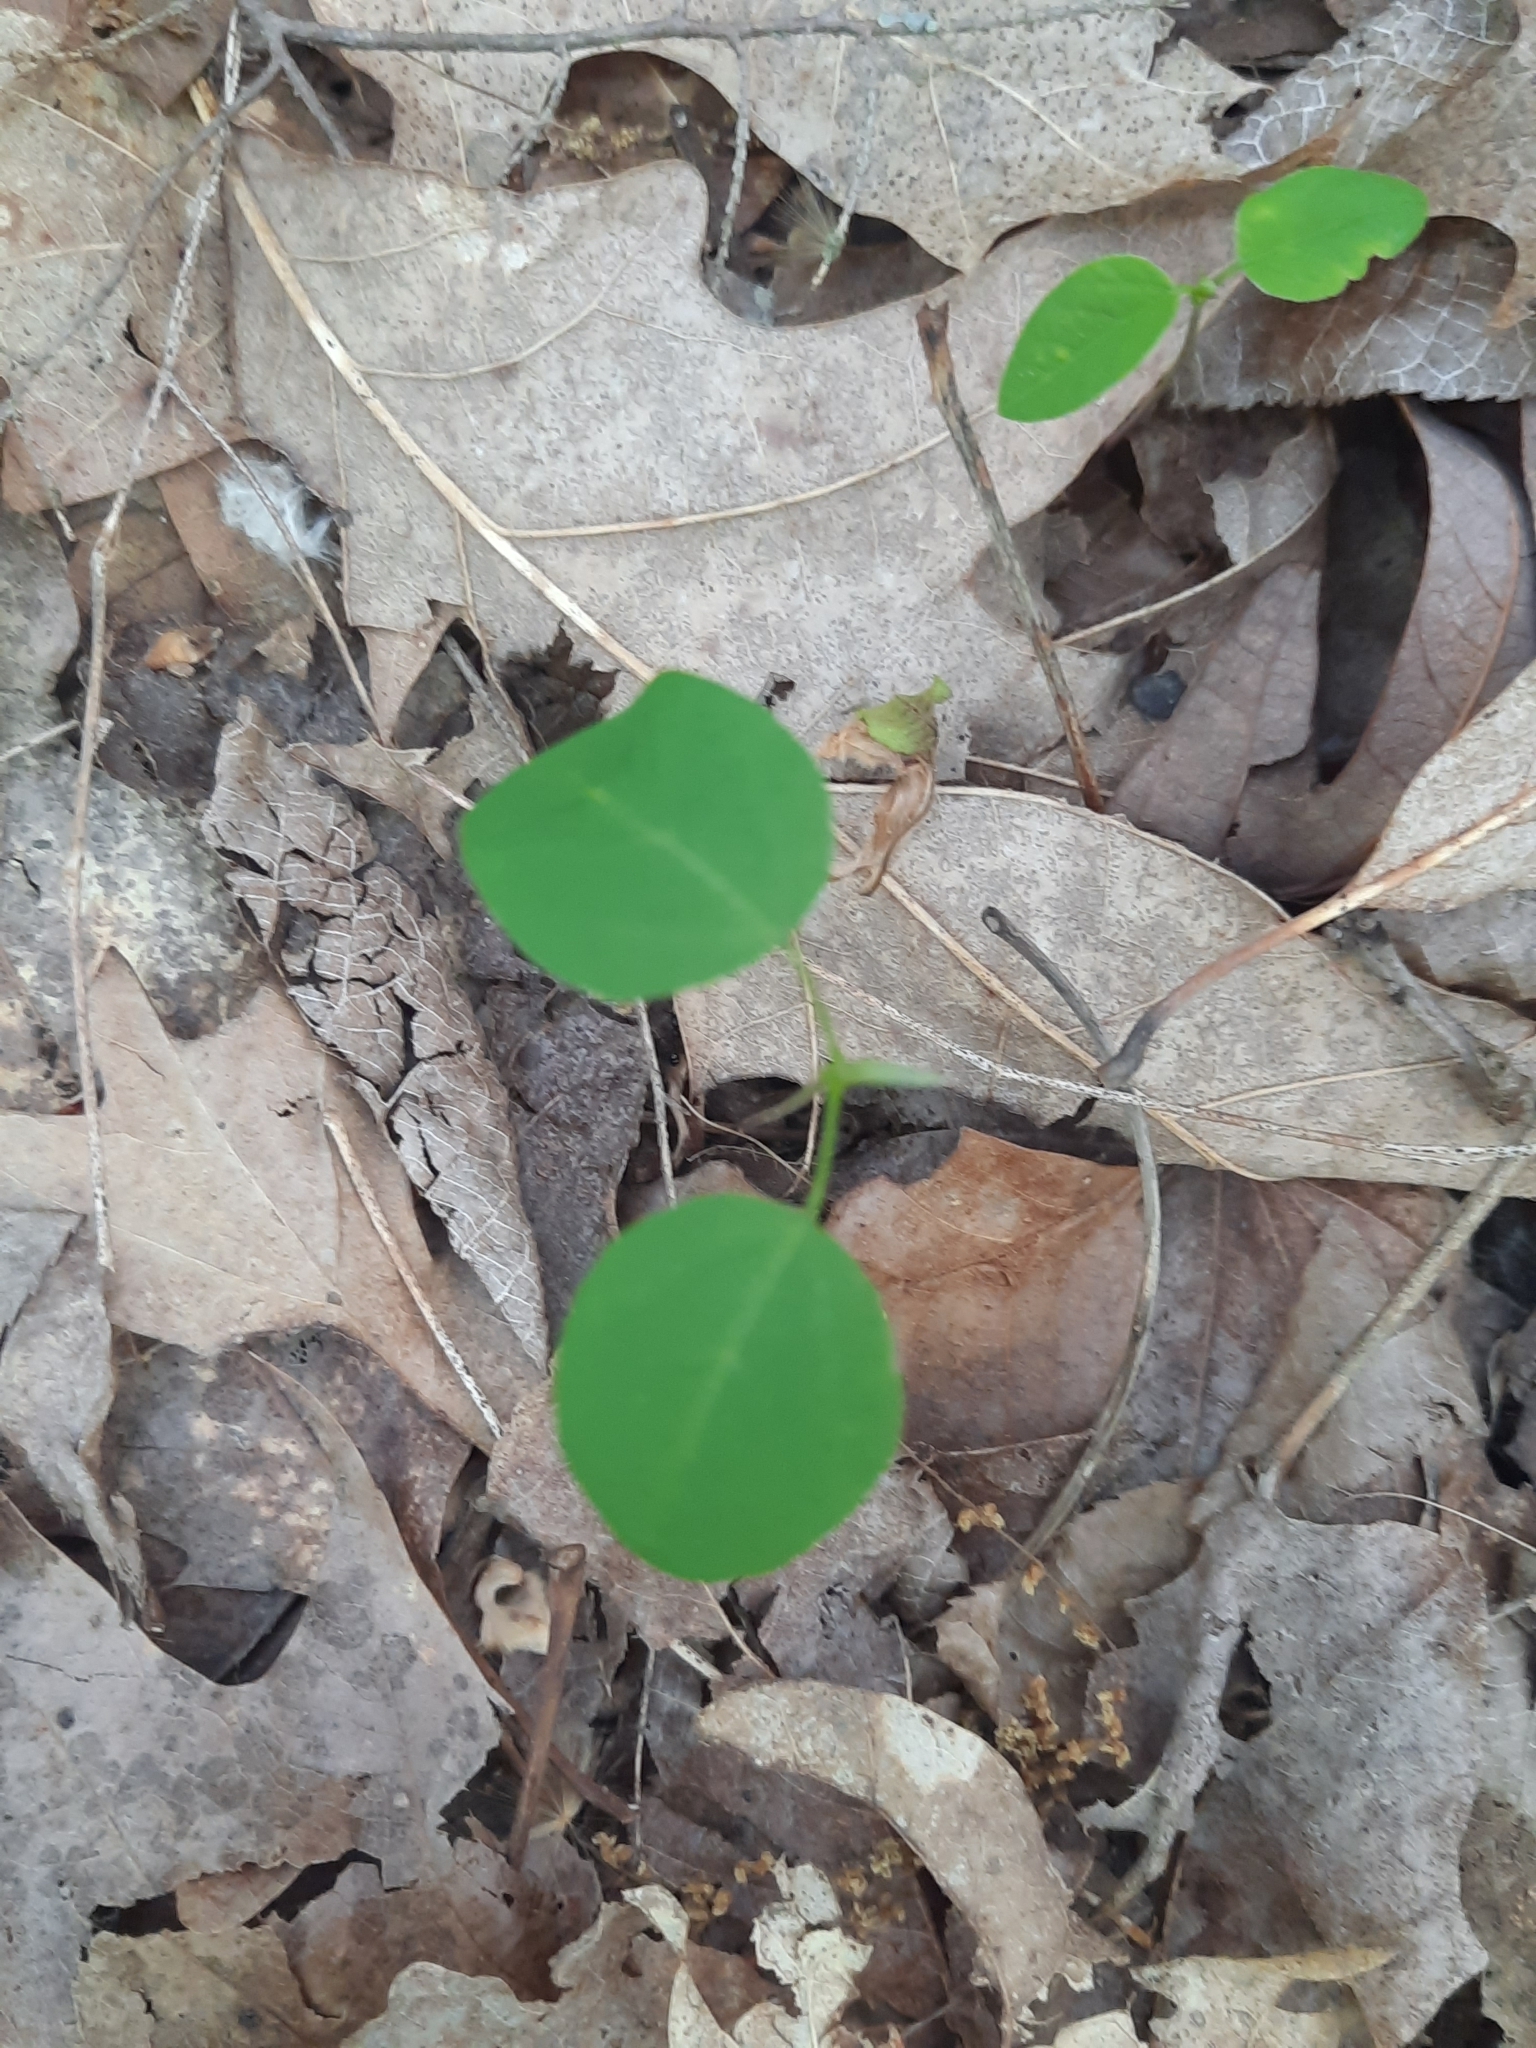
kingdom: Plantae
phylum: Tracheophyta
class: Magnoliopsida
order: Fabales
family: Fabaceae
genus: Amphicarpaea
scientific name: Amphicarpaea bracteata
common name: American hog peanut
